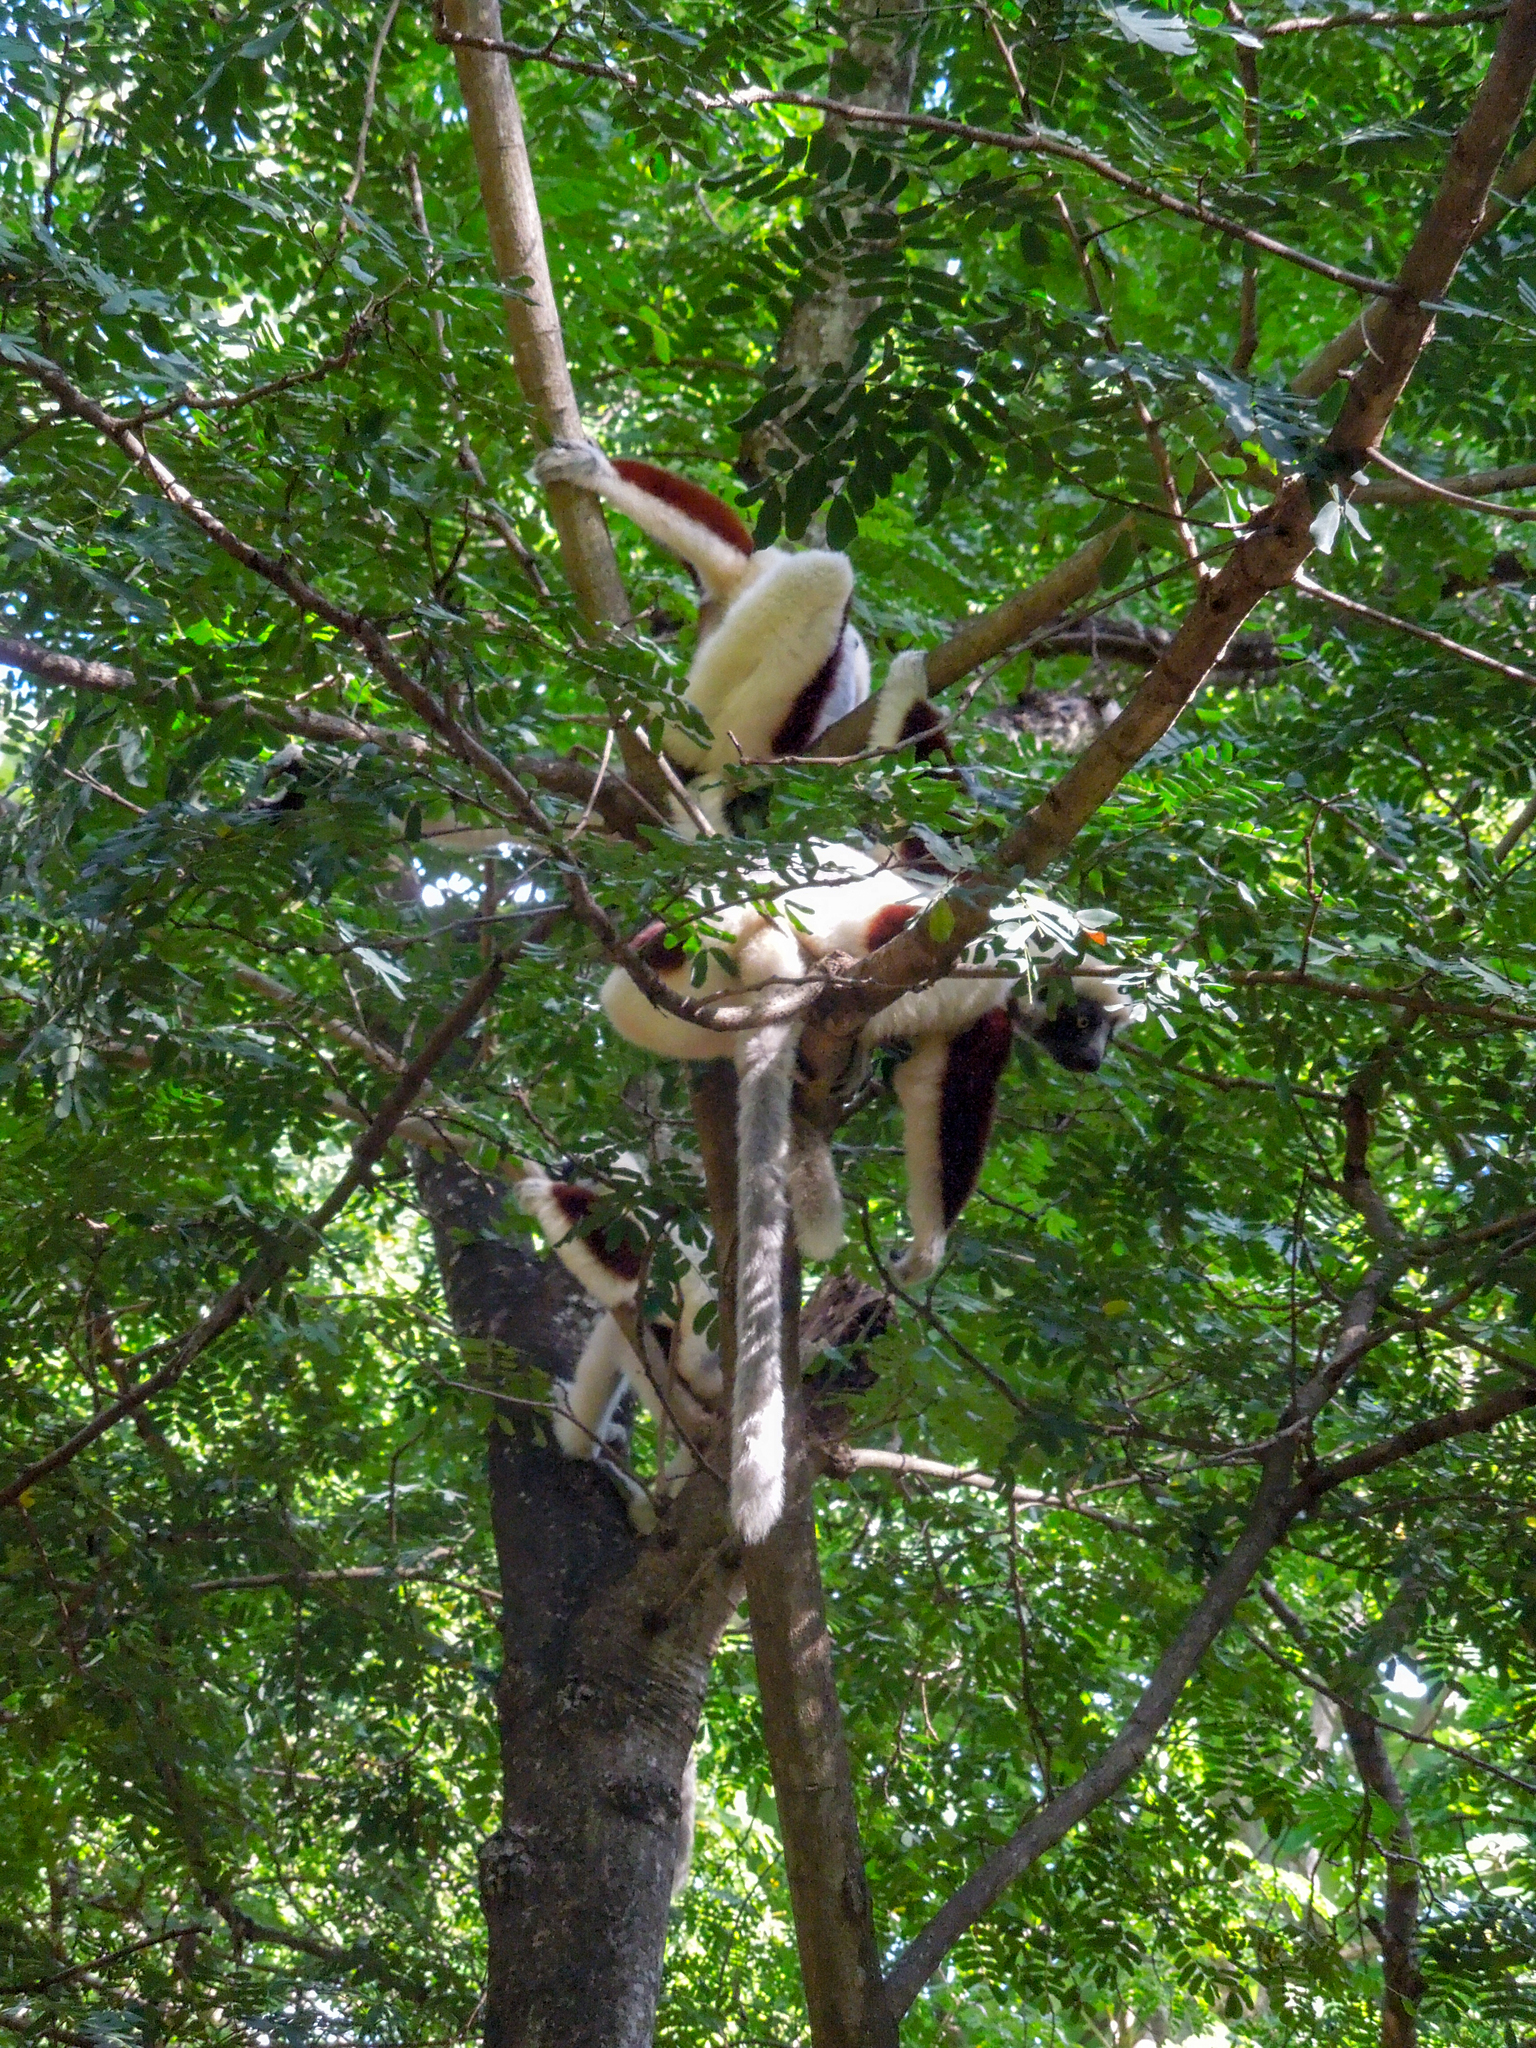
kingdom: Animalia
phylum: Chordata
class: Mammalia
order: Primates
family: Indriidae
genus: Propithecus
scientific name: Propithecus coquereli
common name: Coquerel's sifaka
